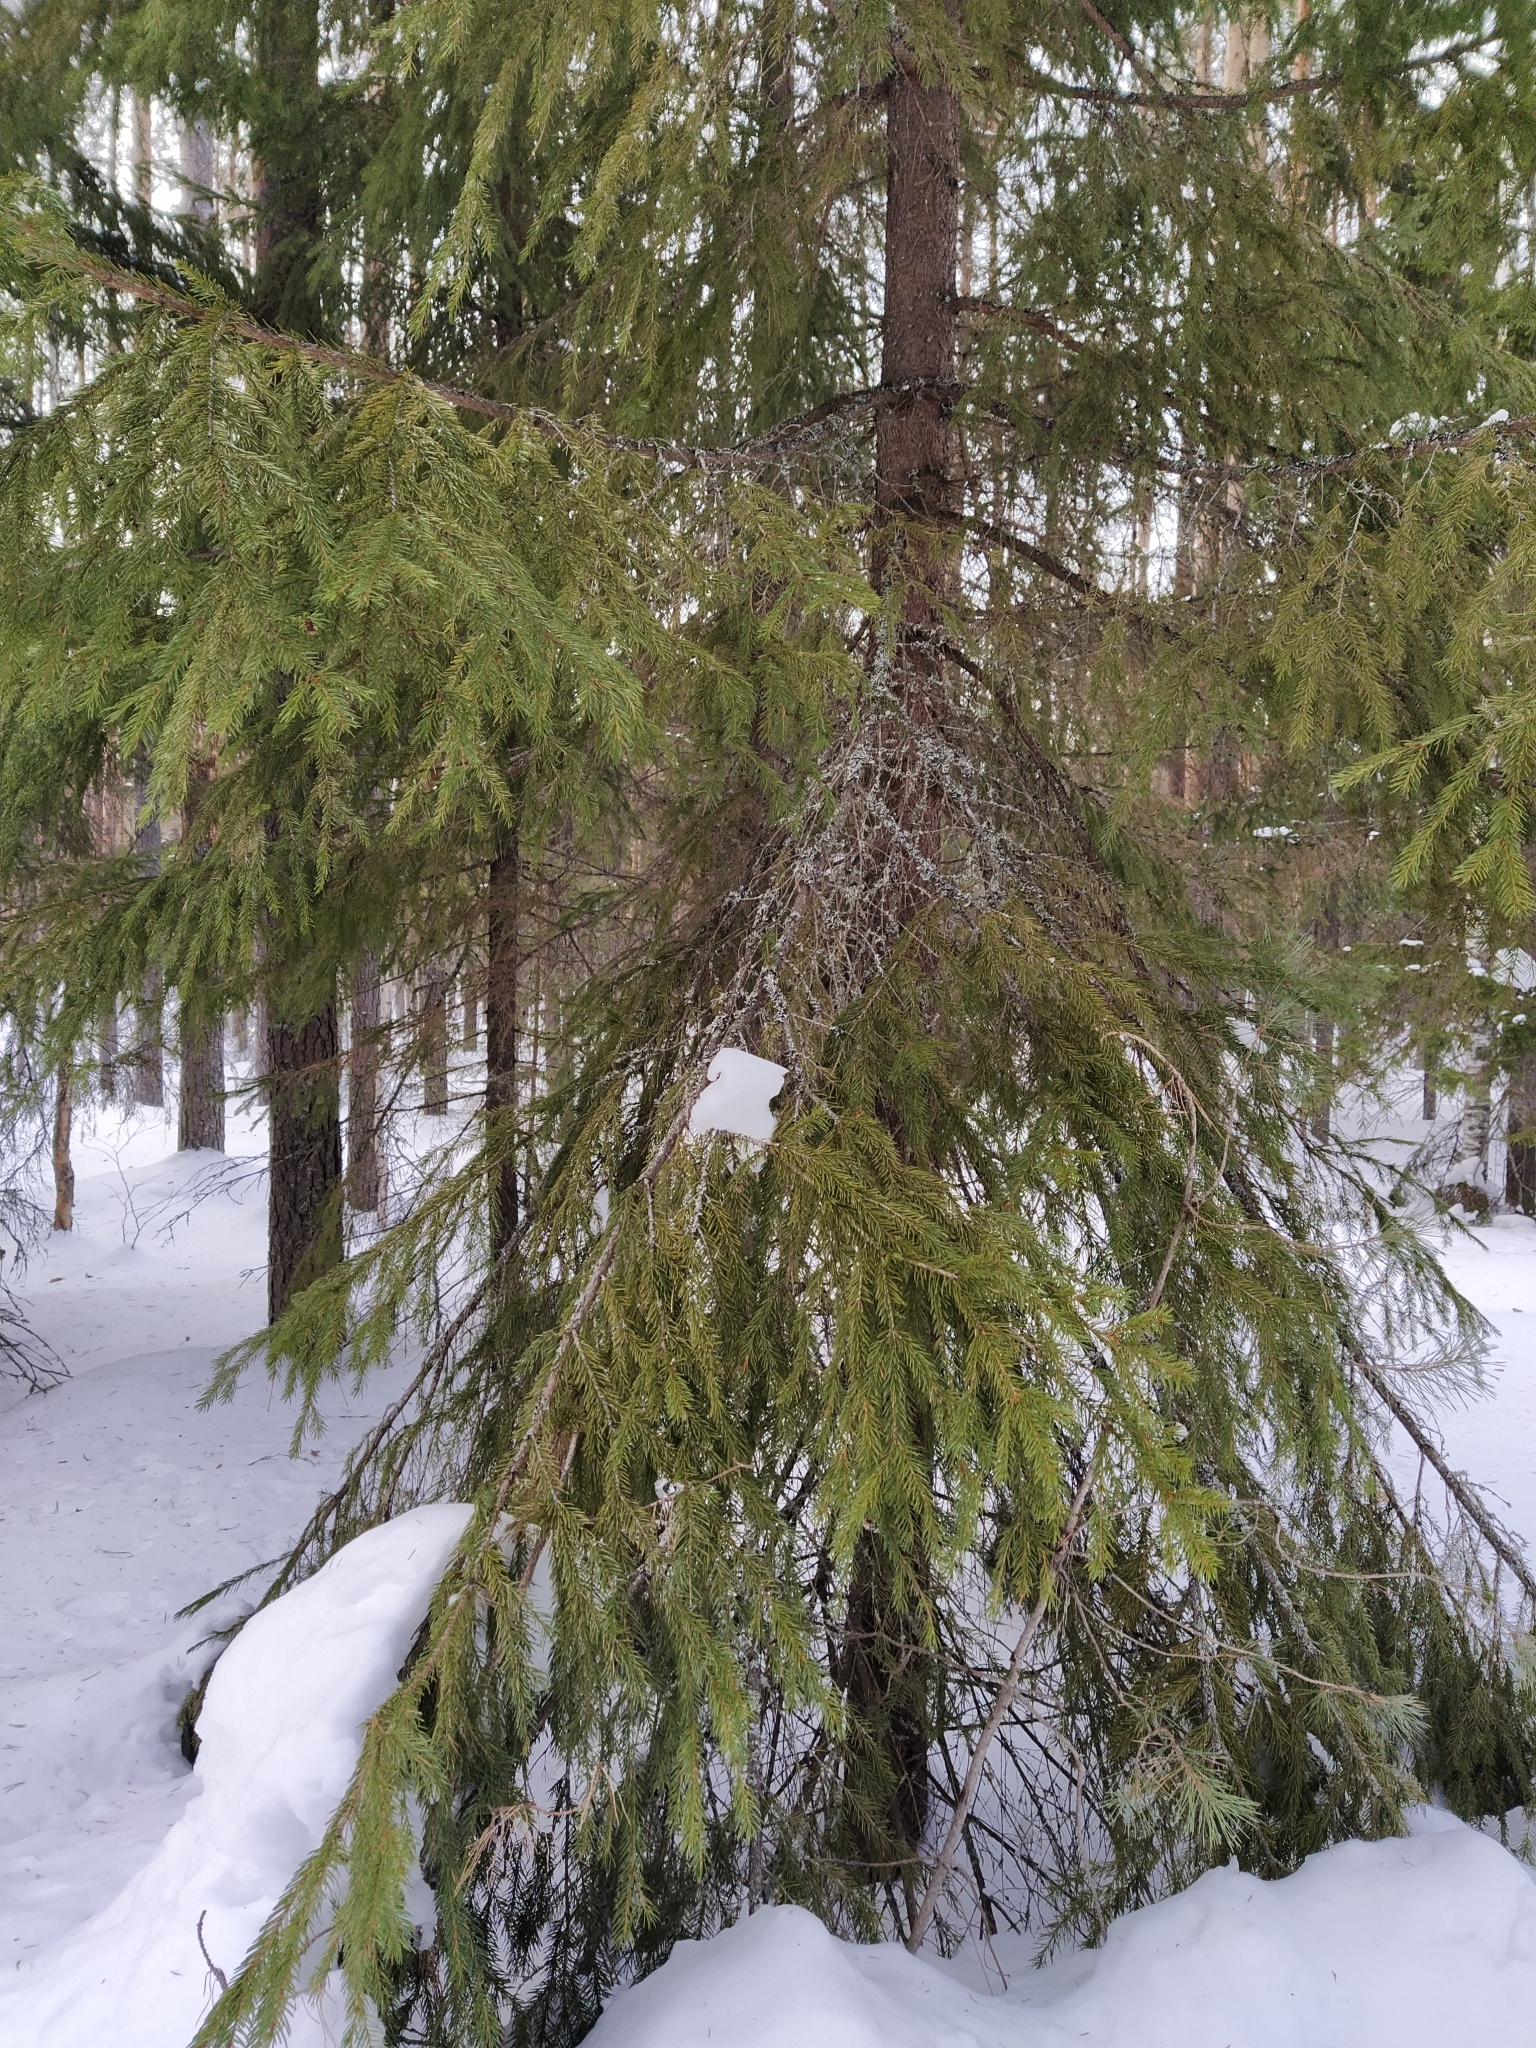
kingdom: Plantae
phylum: Tracheophyta
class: Pinopsida
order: Pinales
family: Pinaceae
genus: Picea
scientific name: Picea abies
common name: Norway spruce
